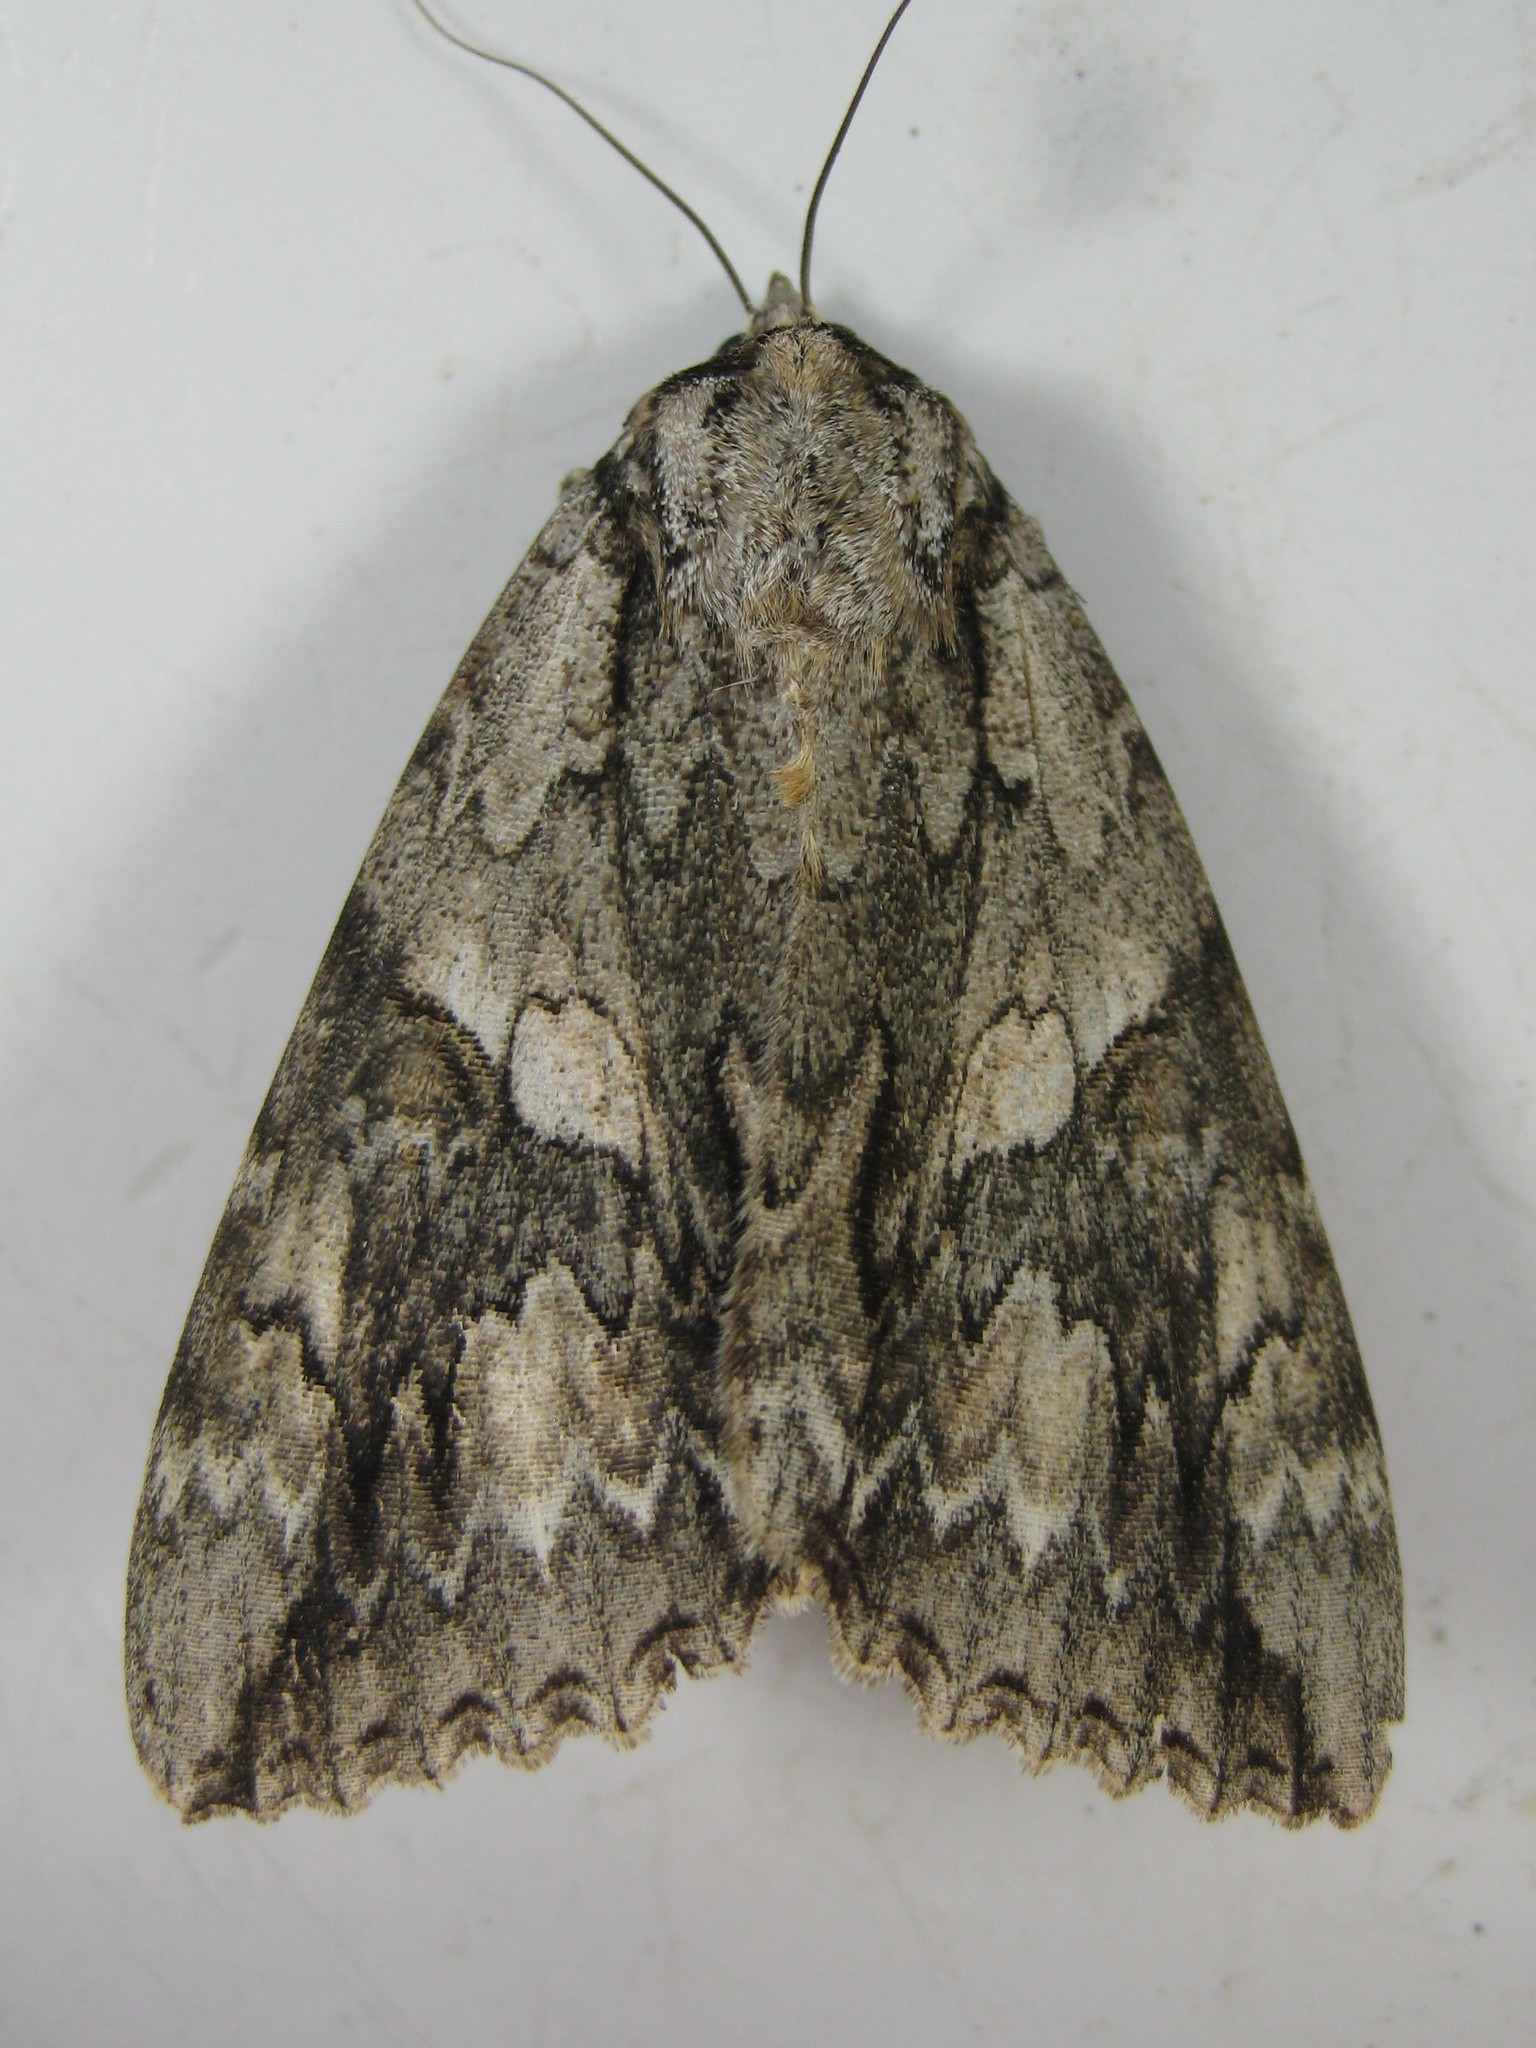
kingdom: Animalia
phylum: Arthropoda
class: Insecta
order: Lepidoptera
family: Erebidae
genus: Catocala
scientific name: Catocala parta
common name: Mother underwing
